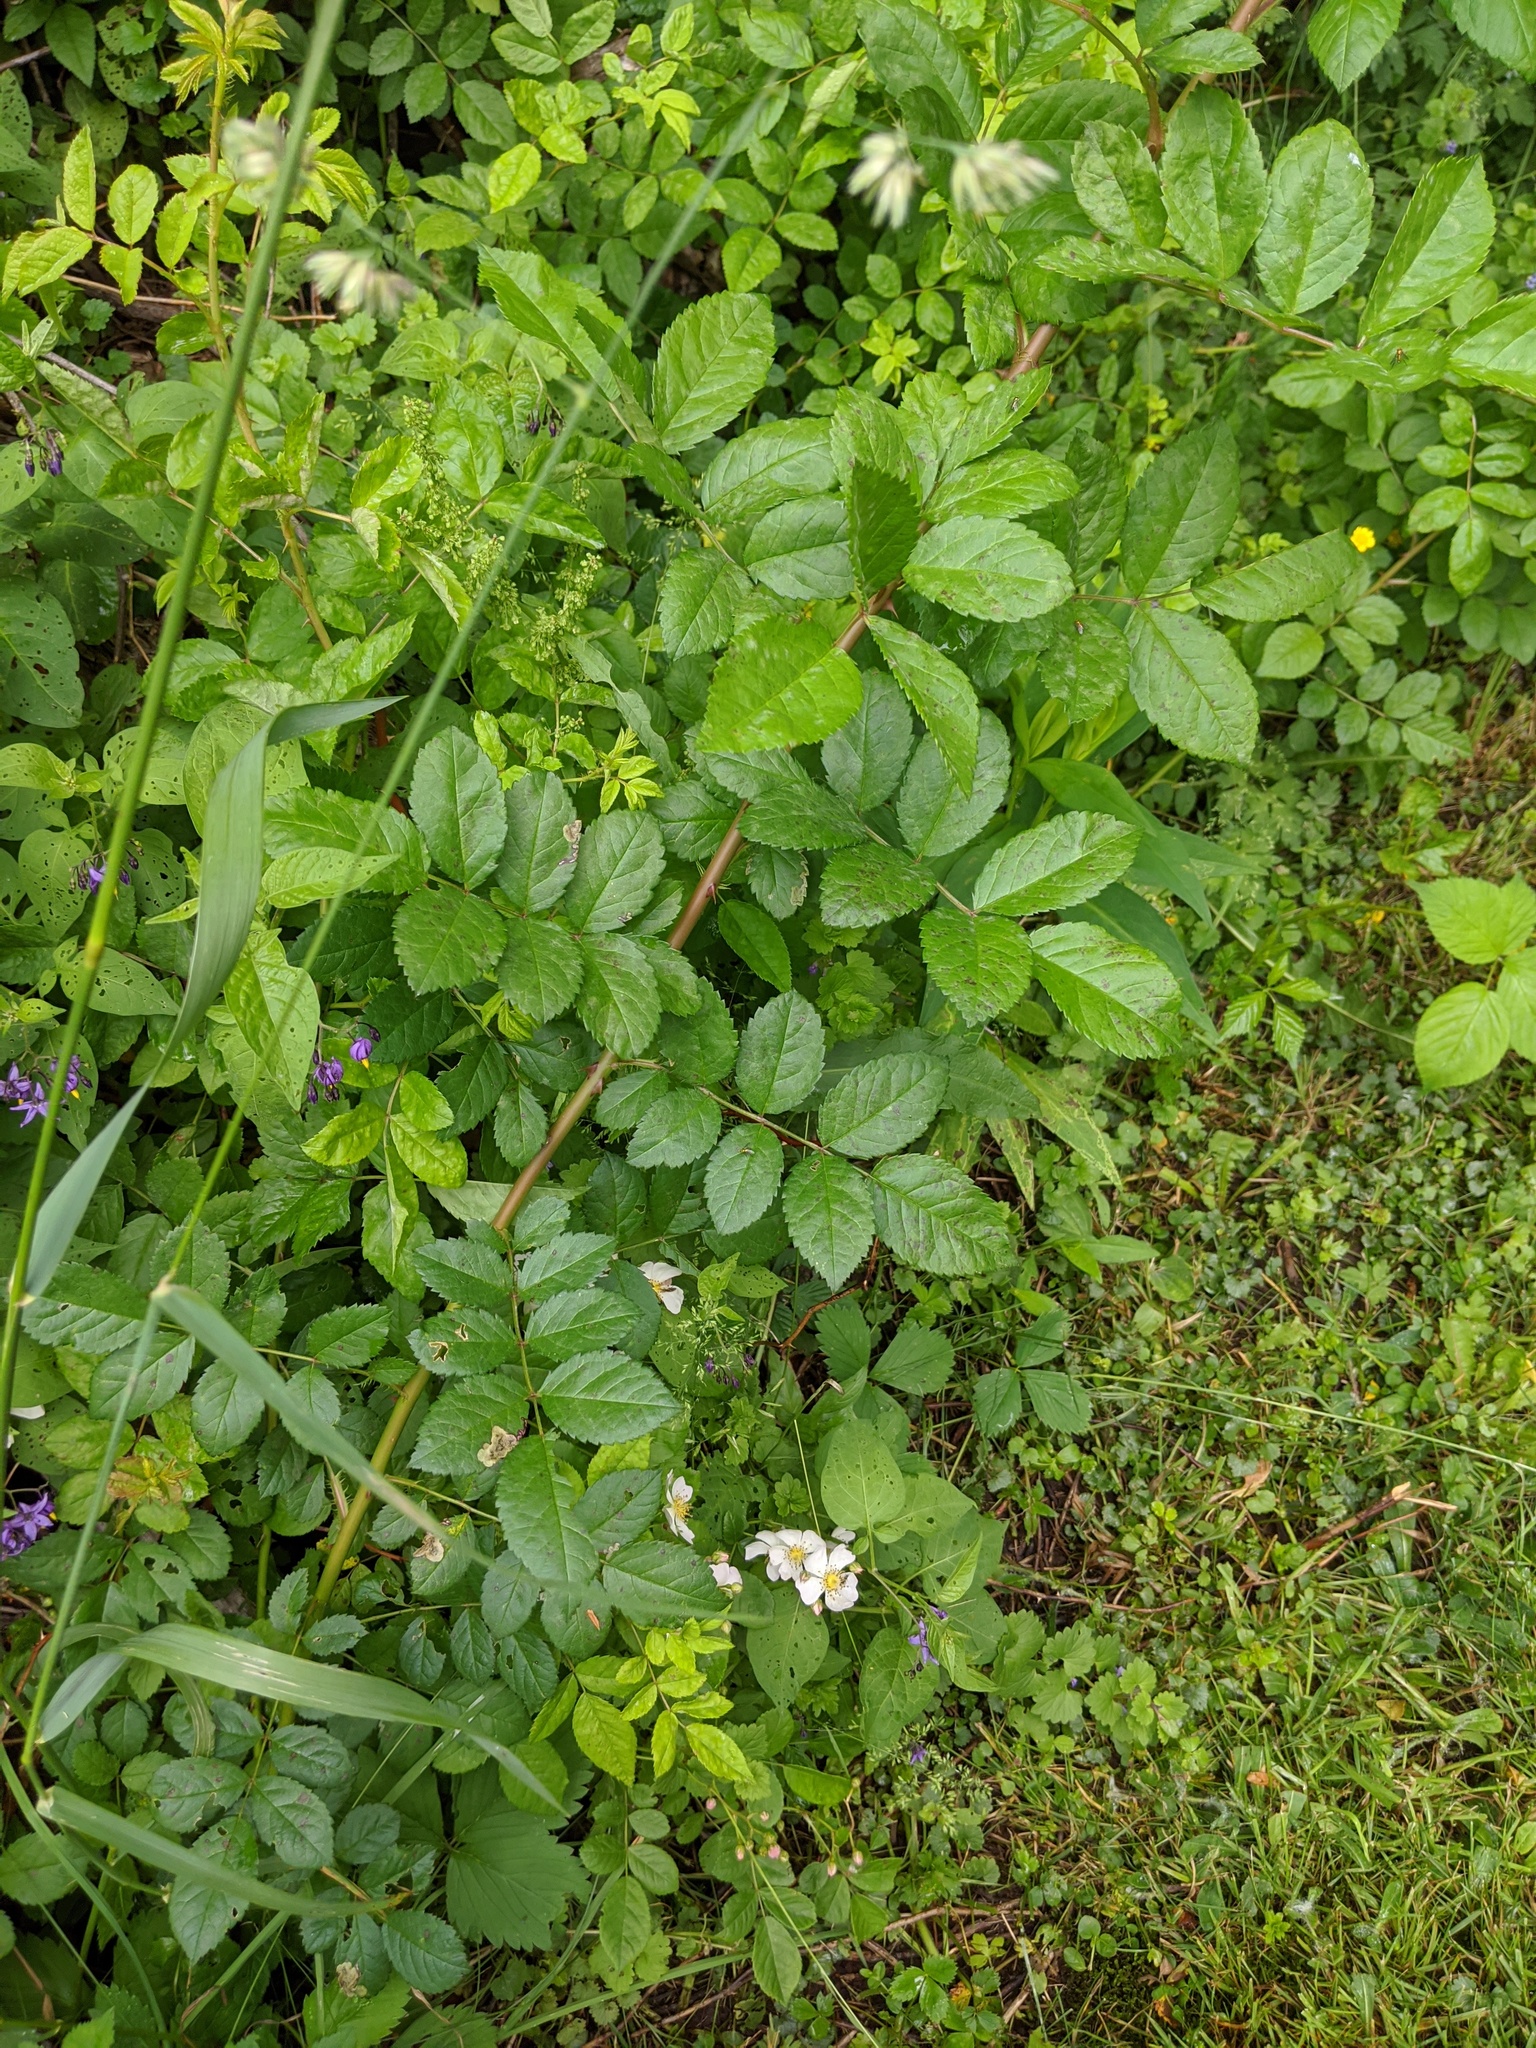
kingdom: Plantae
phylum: Tracheophyta
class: Magnoliopsida
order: Rosales
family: Rosaceae
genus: Rosa
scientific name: Rosa multiflora
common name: Multiflora rose
